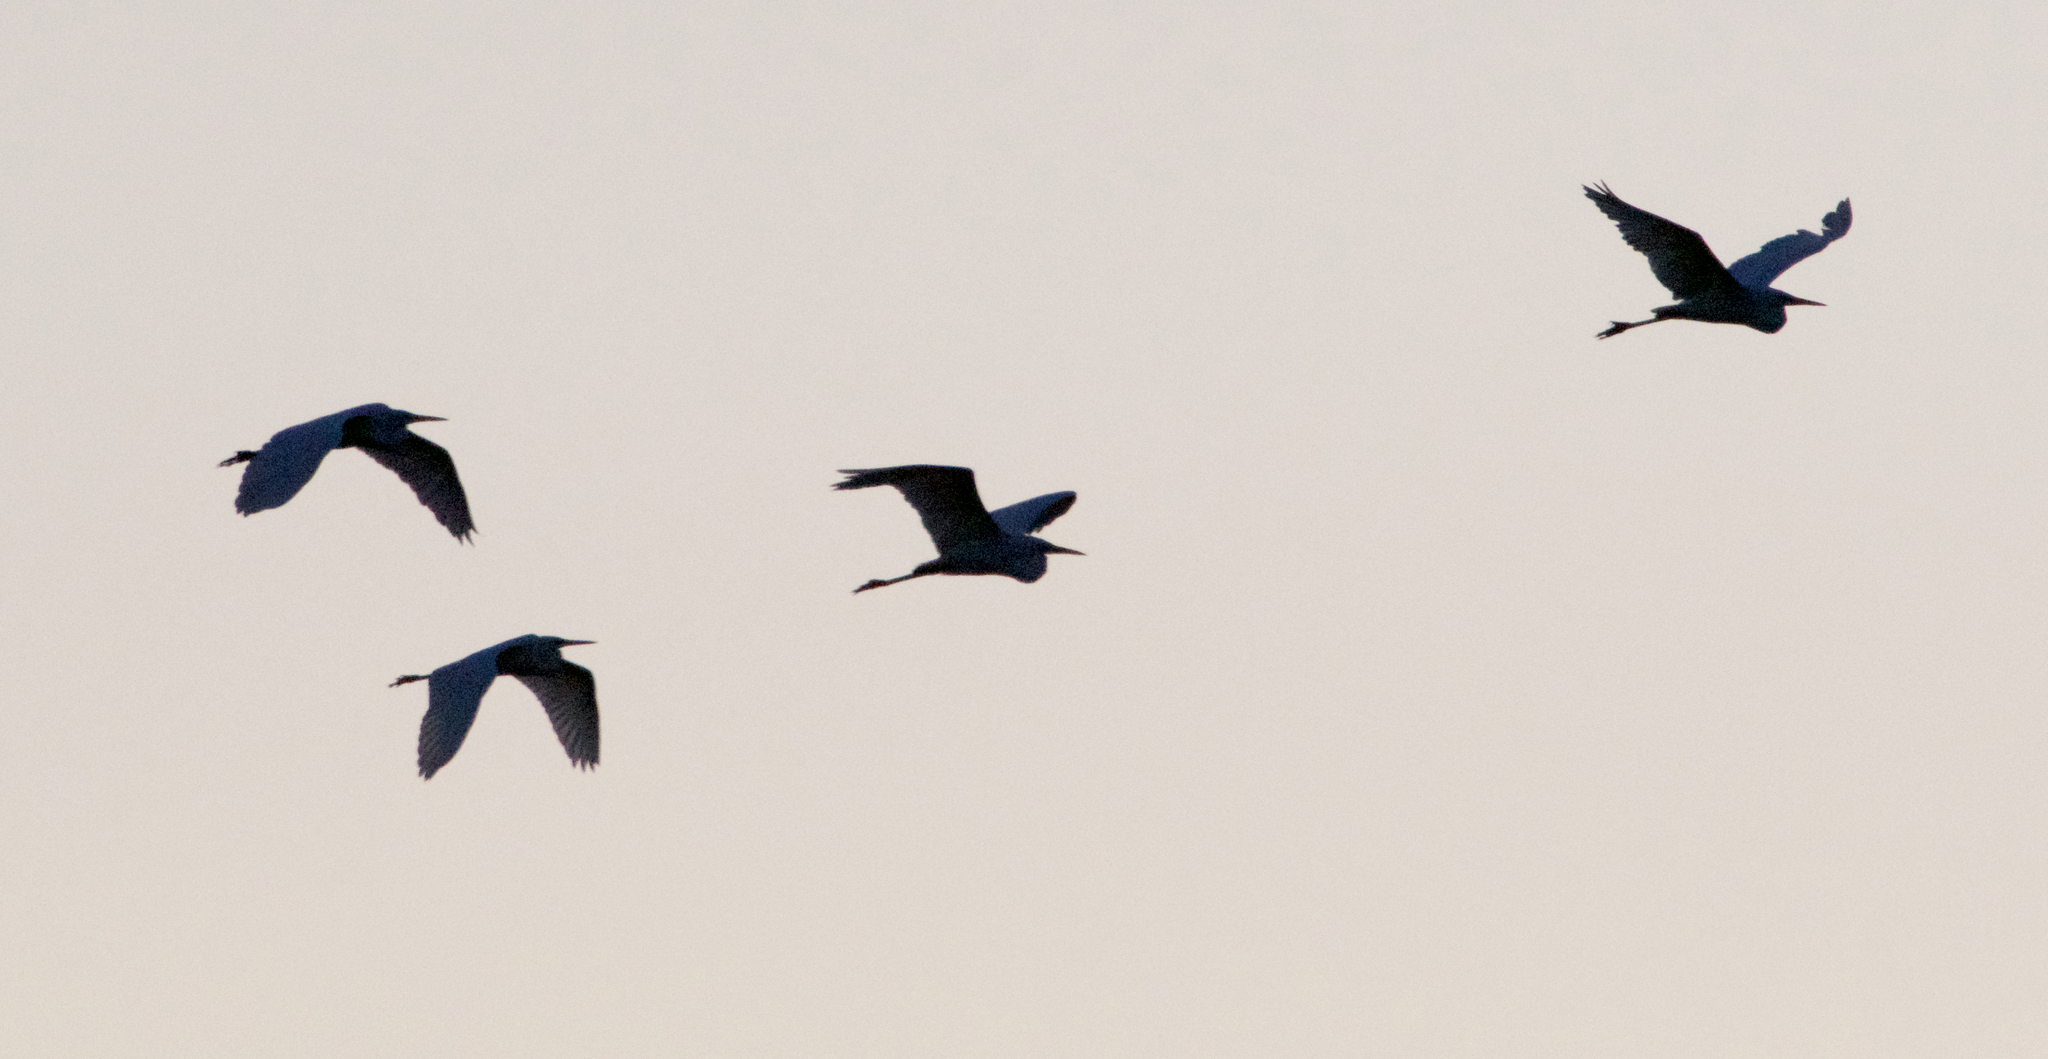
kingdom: Animalia
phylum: Chordata
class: Aves
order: Pelecaniformes
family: Ardeidae
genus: Ardea
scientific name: Ardea alba
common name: Great egret
